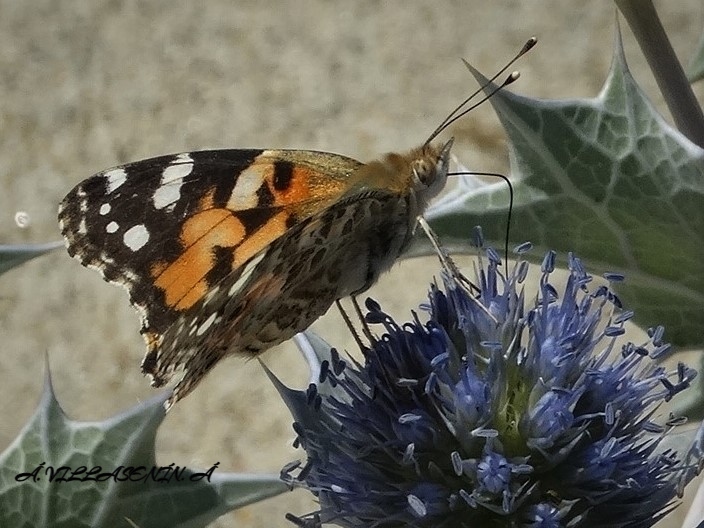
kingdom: Animalia
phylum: Arthropoda
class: Insecta
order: Lepidoptera
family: Nymphalidae
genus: Vanessa
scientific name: Vanessa cardui
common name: Painted lady
